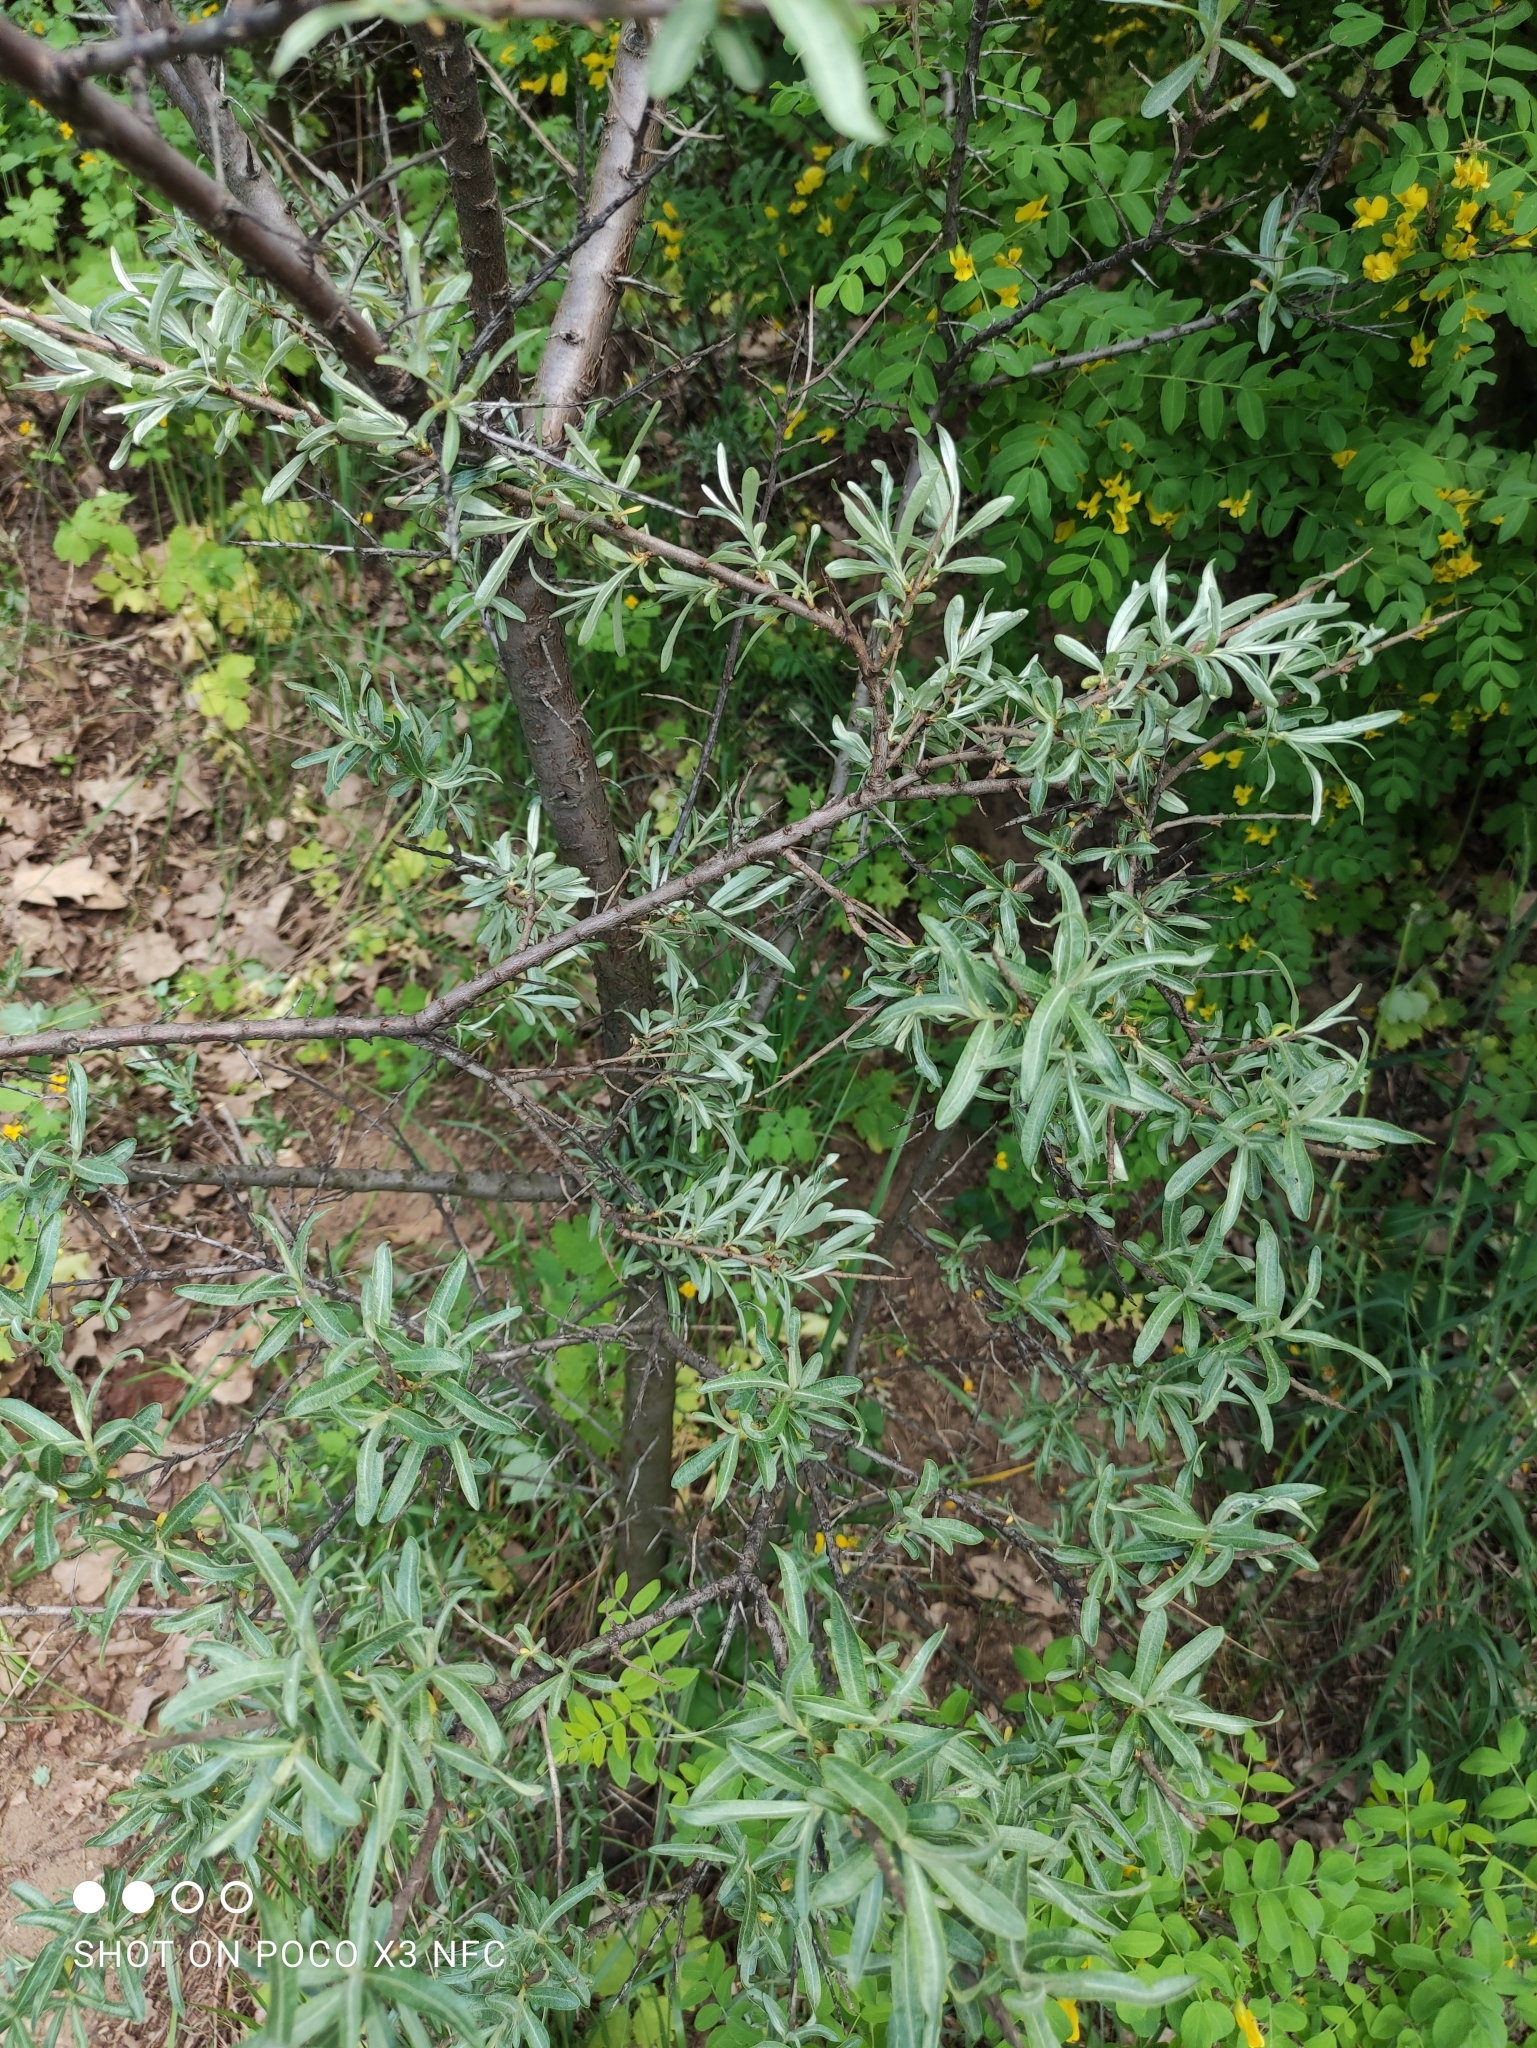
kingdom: Plantae
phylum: Tracheophyta
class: Magnoliopsida
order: Rosales
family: Elaeagnaceae
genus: Hippophae
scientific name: Hippophae rhamnoides
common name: Sea-buckthorn
